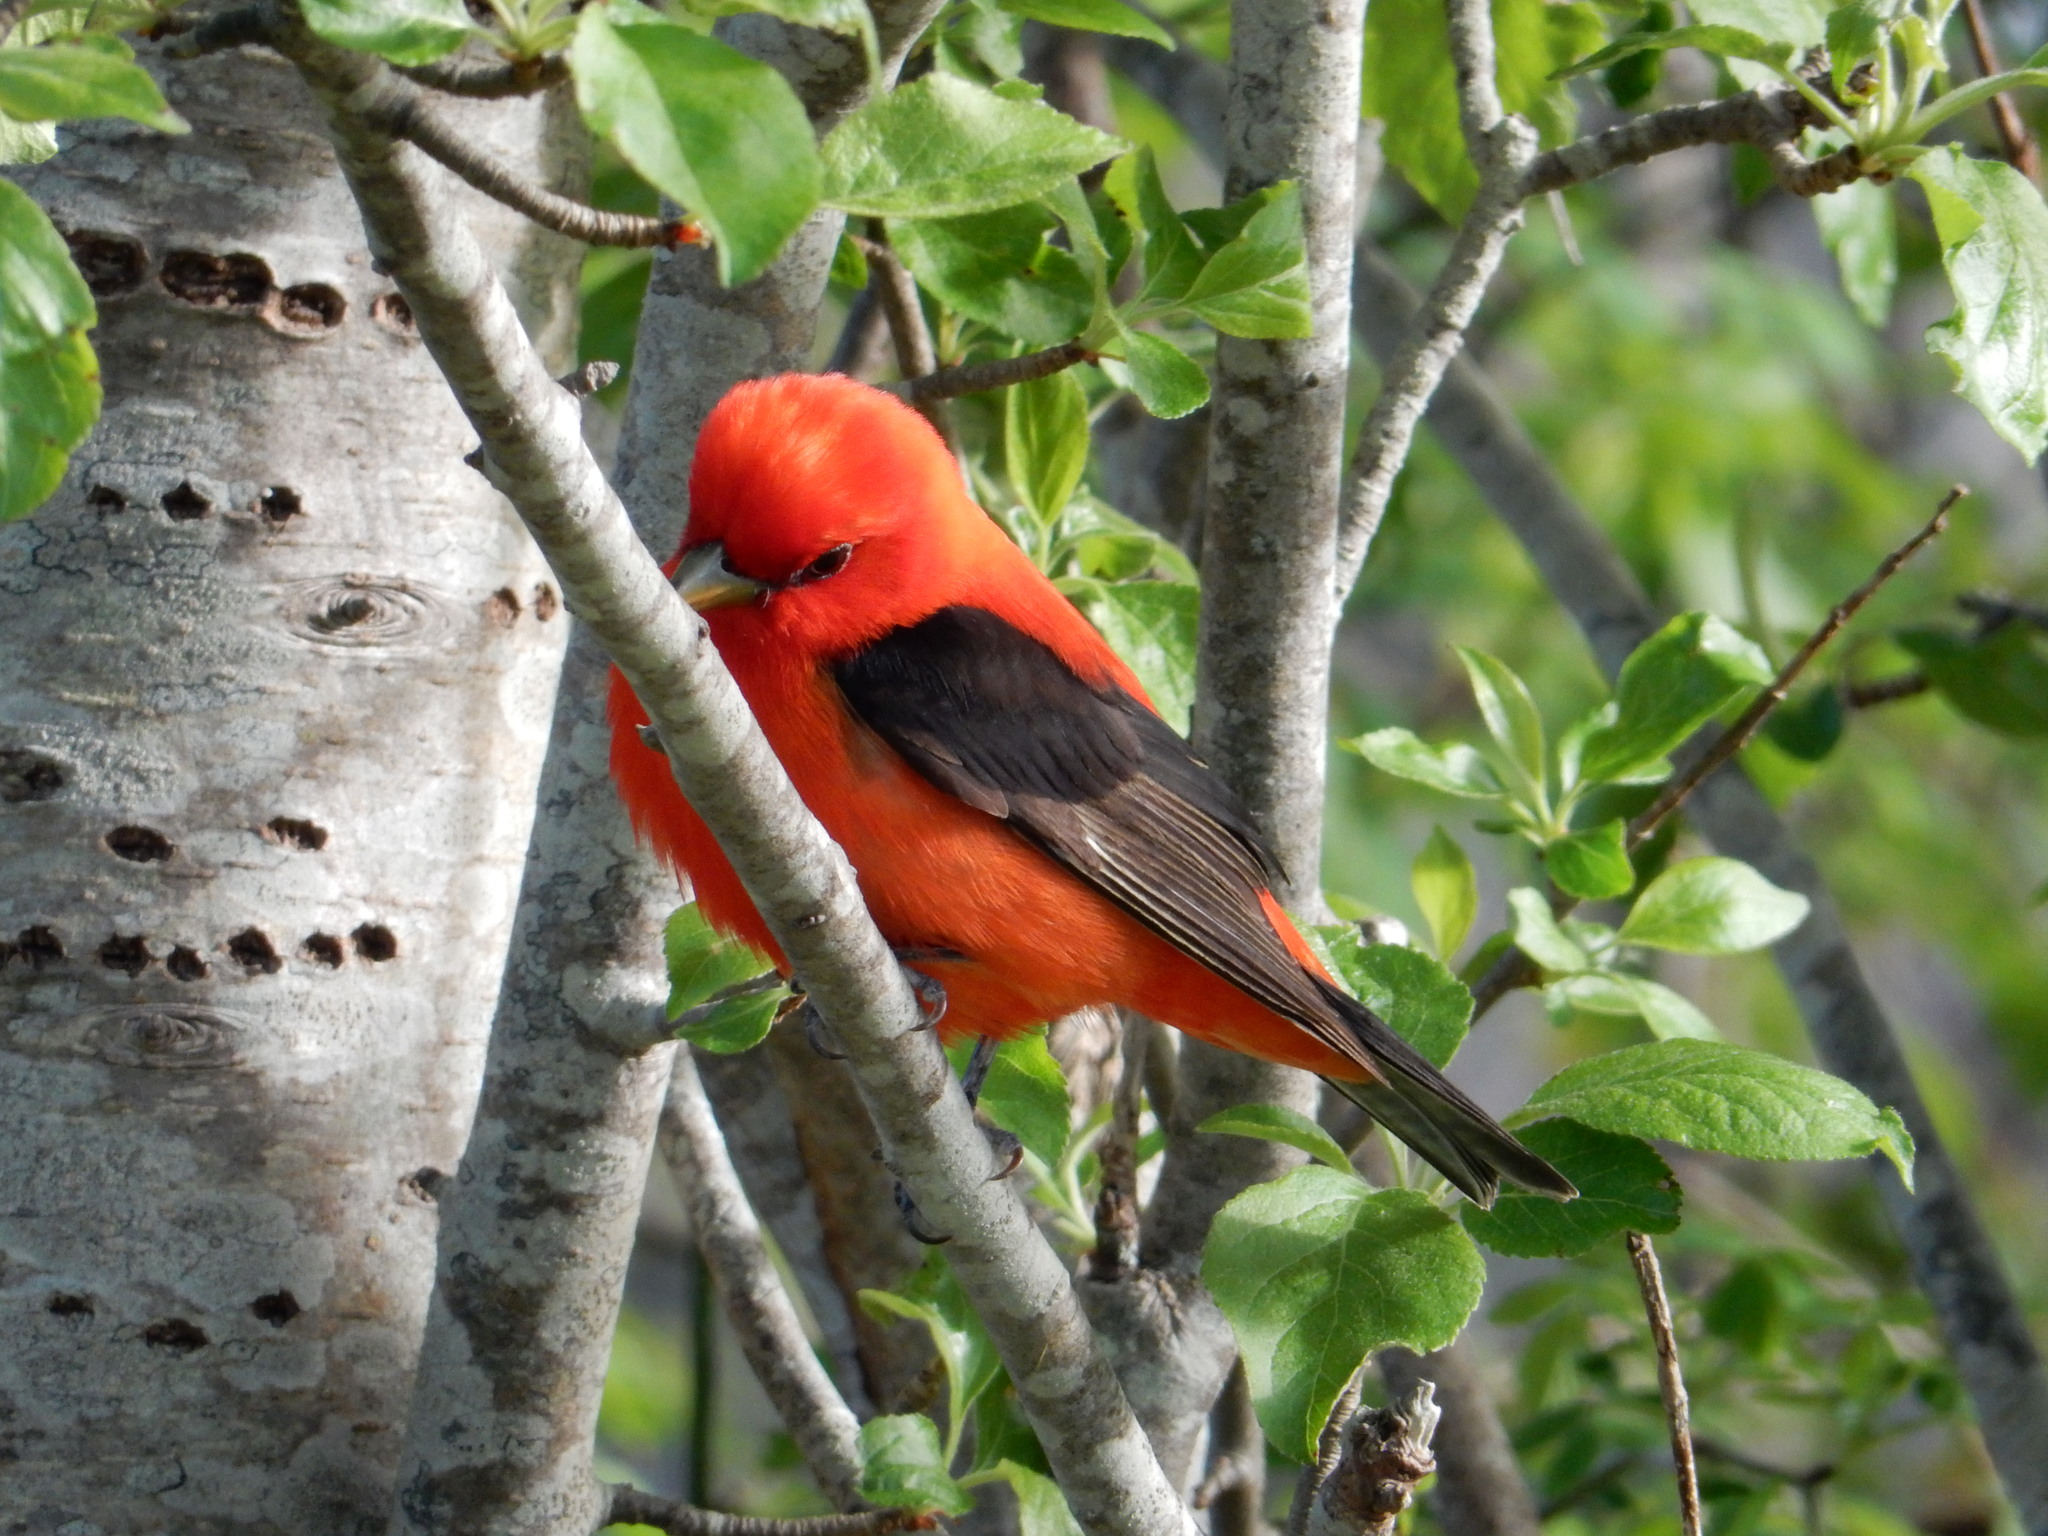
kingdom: Animalia
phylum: Chordata
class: Aves
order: Passeriformes
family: Cardinalidae
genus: Piranga
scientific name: Piranga olivacea
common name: Scarlet tanager
